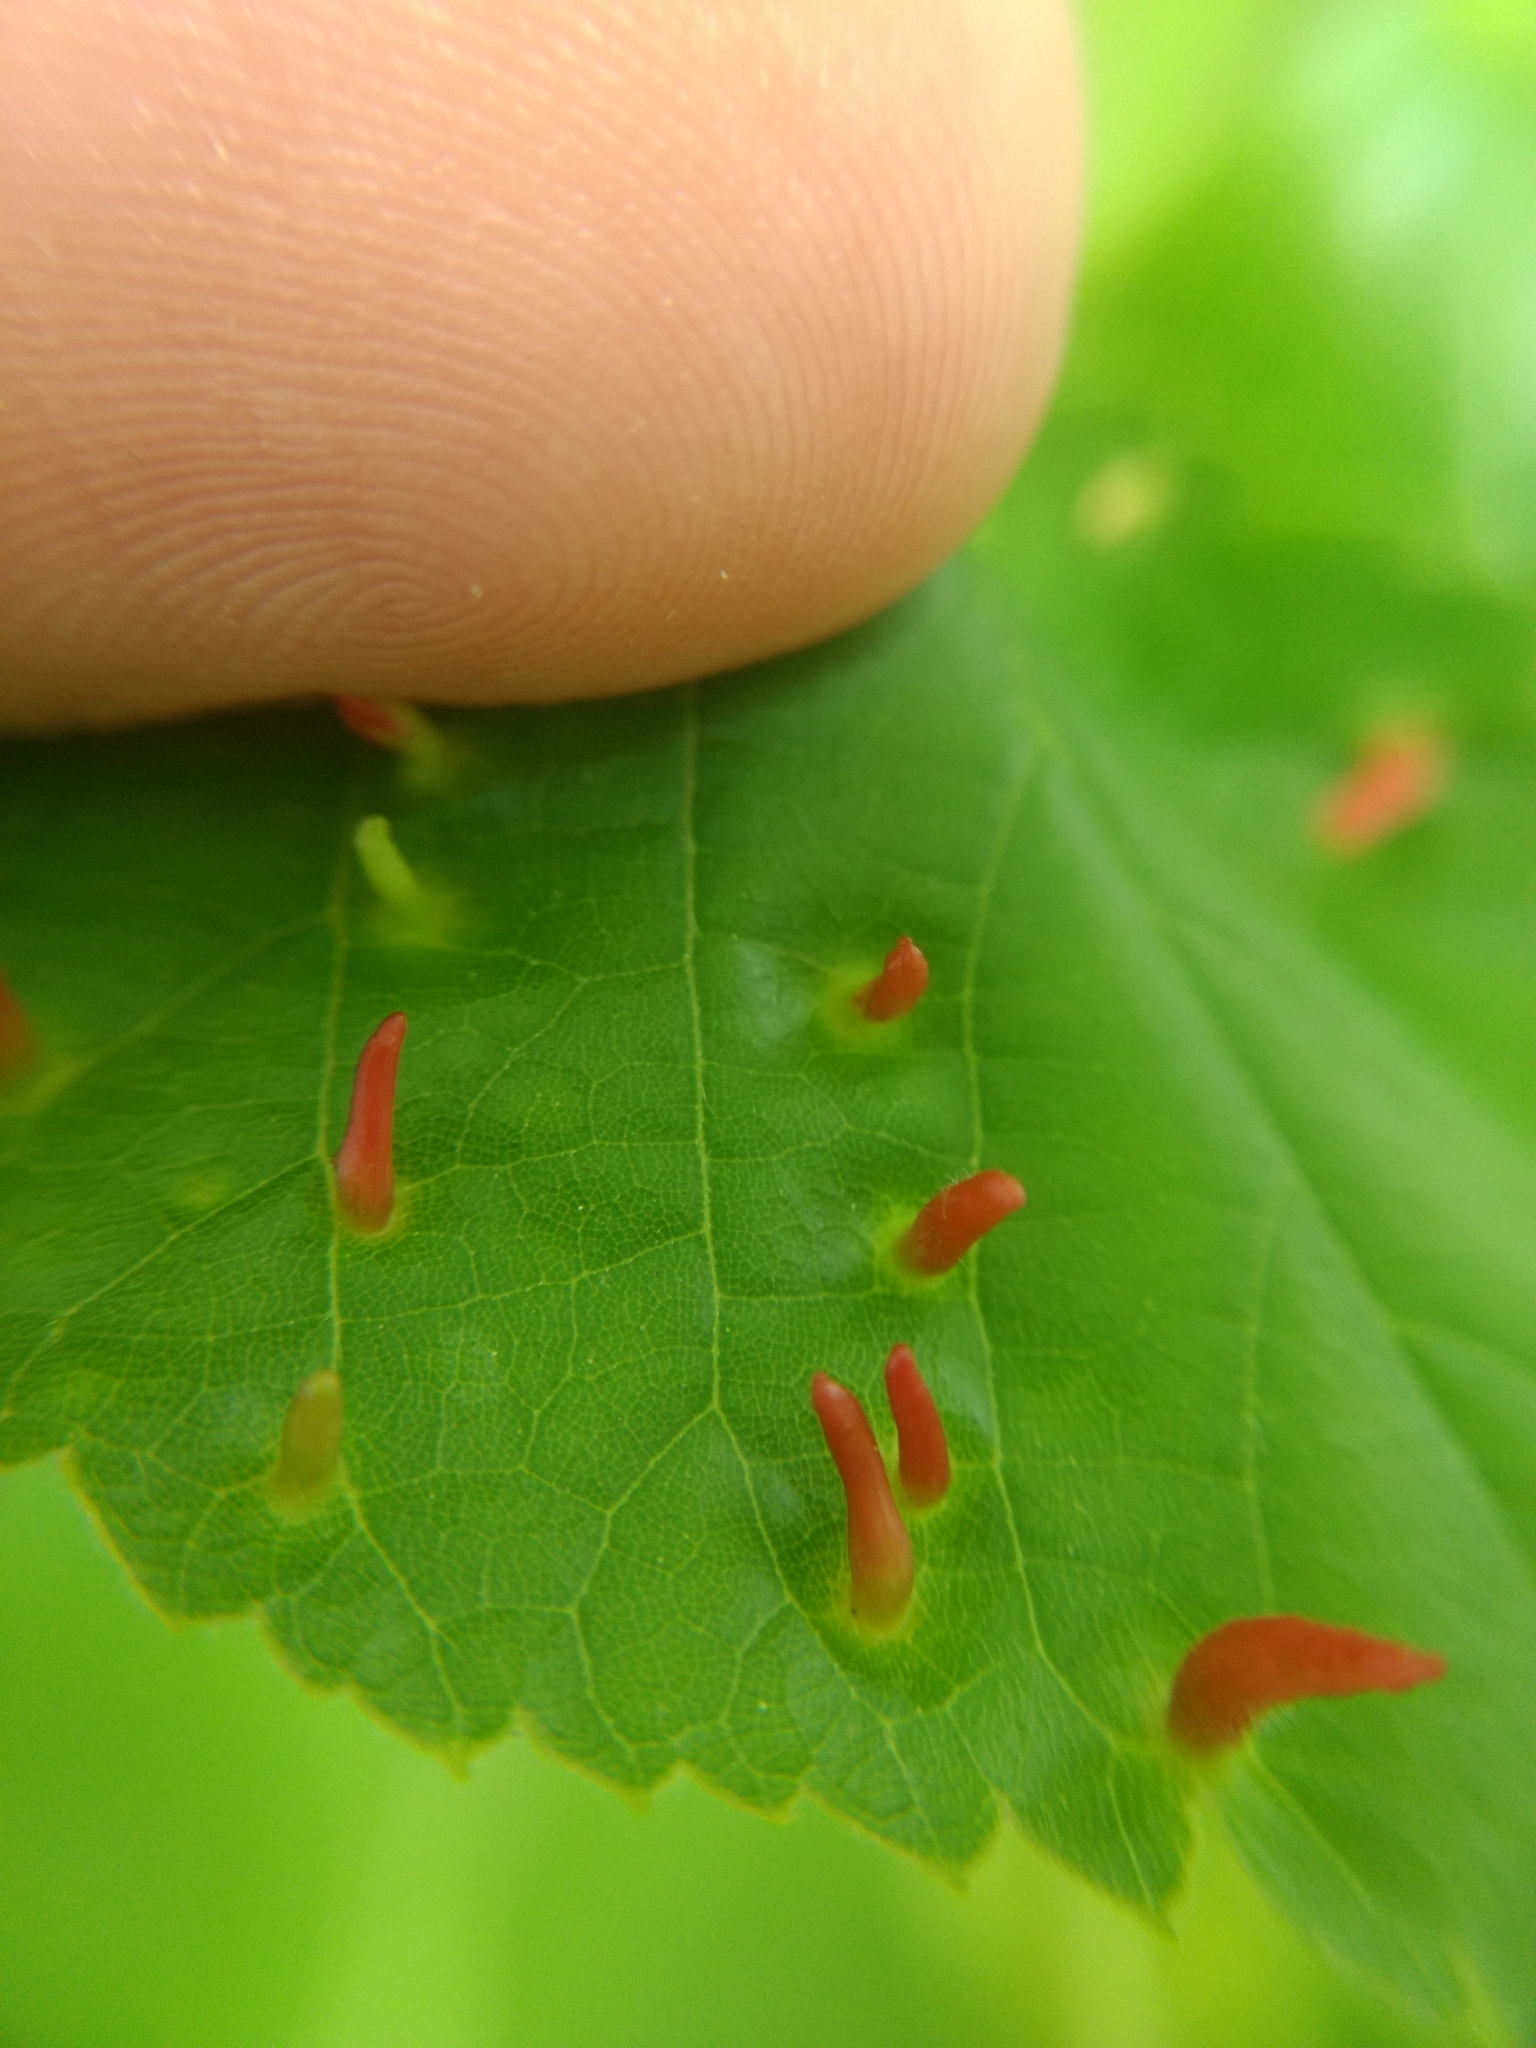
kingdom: Animalia
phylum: Arthropoda
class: Arachnida
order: Trombidiformes
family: Eriophyidae
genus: Eriophyes
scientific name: Eriophyes tiliae
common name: Red nail gall mite
